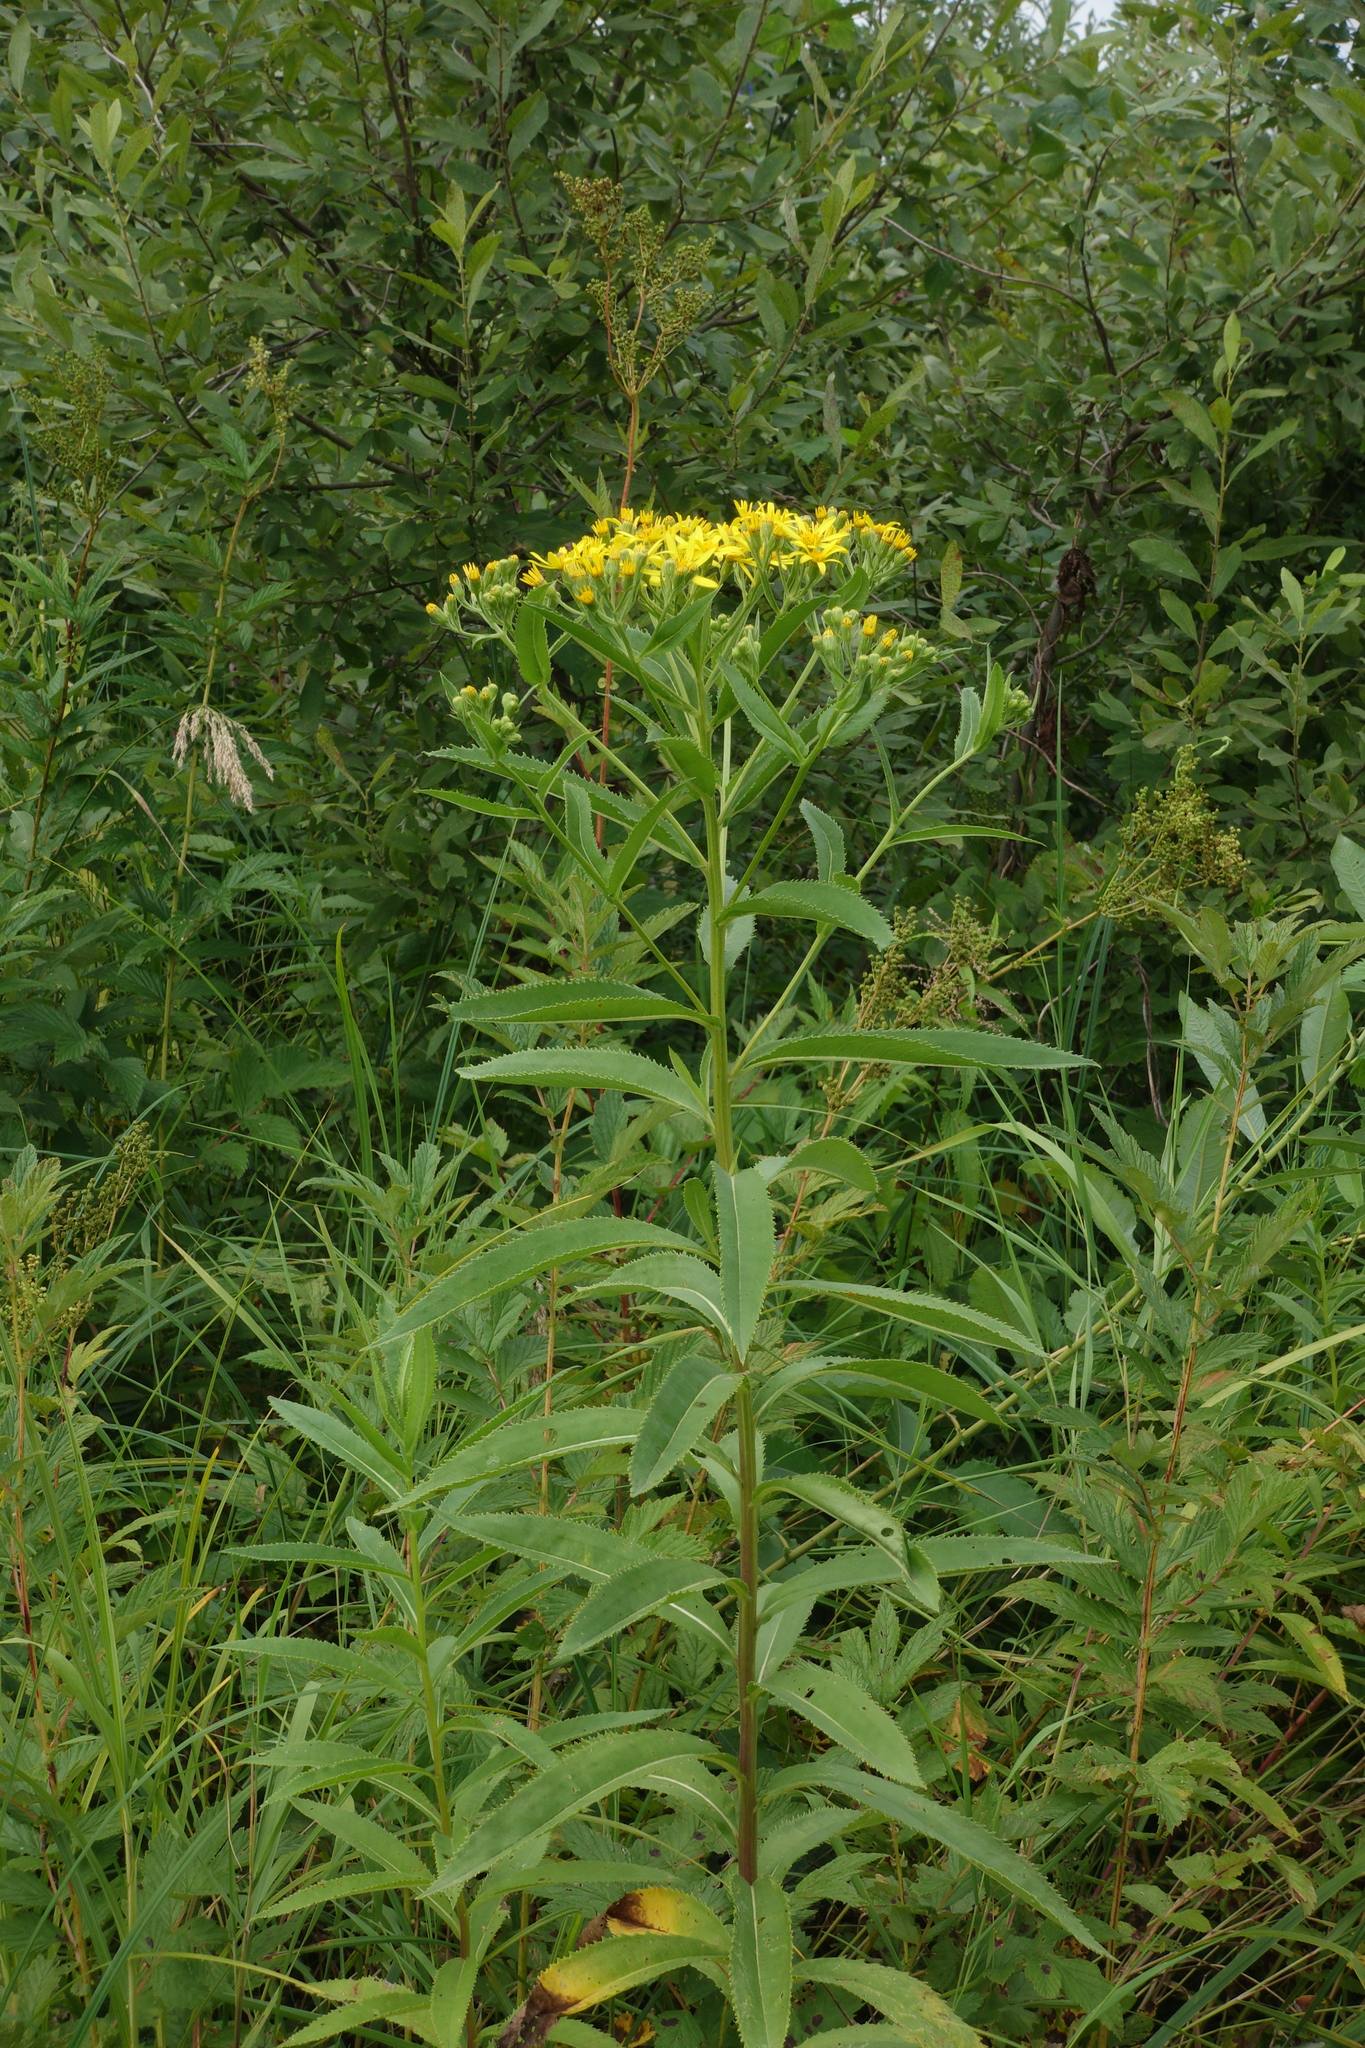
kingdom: Plantae
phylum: Tracheophyta
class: Magnoliopsida
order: Asterales
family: Asteraceae
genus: Senecio
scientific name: Senecio sarracenicus
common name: Broad-leaved ragwort
